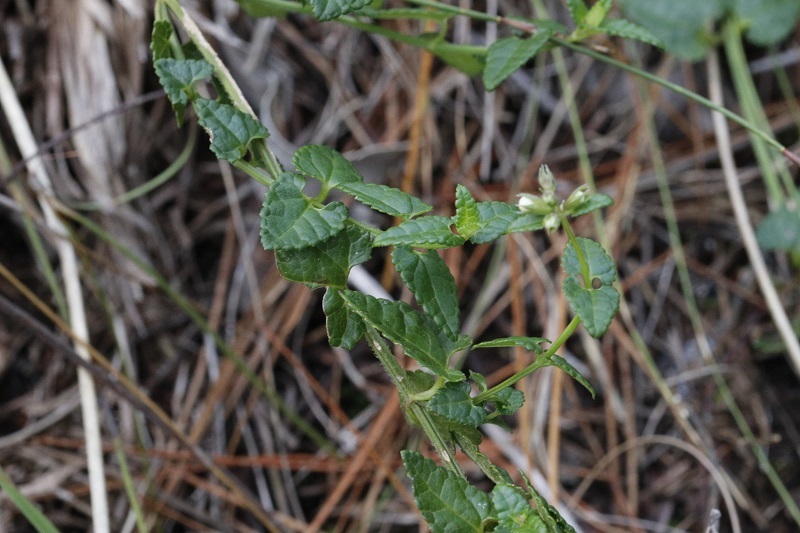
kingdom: Plantae
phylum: Tracheophyta
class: Magnoliopsida
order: Lamiales
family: Lamiaceae
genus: Stachys
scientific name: Stachys aethiopica
